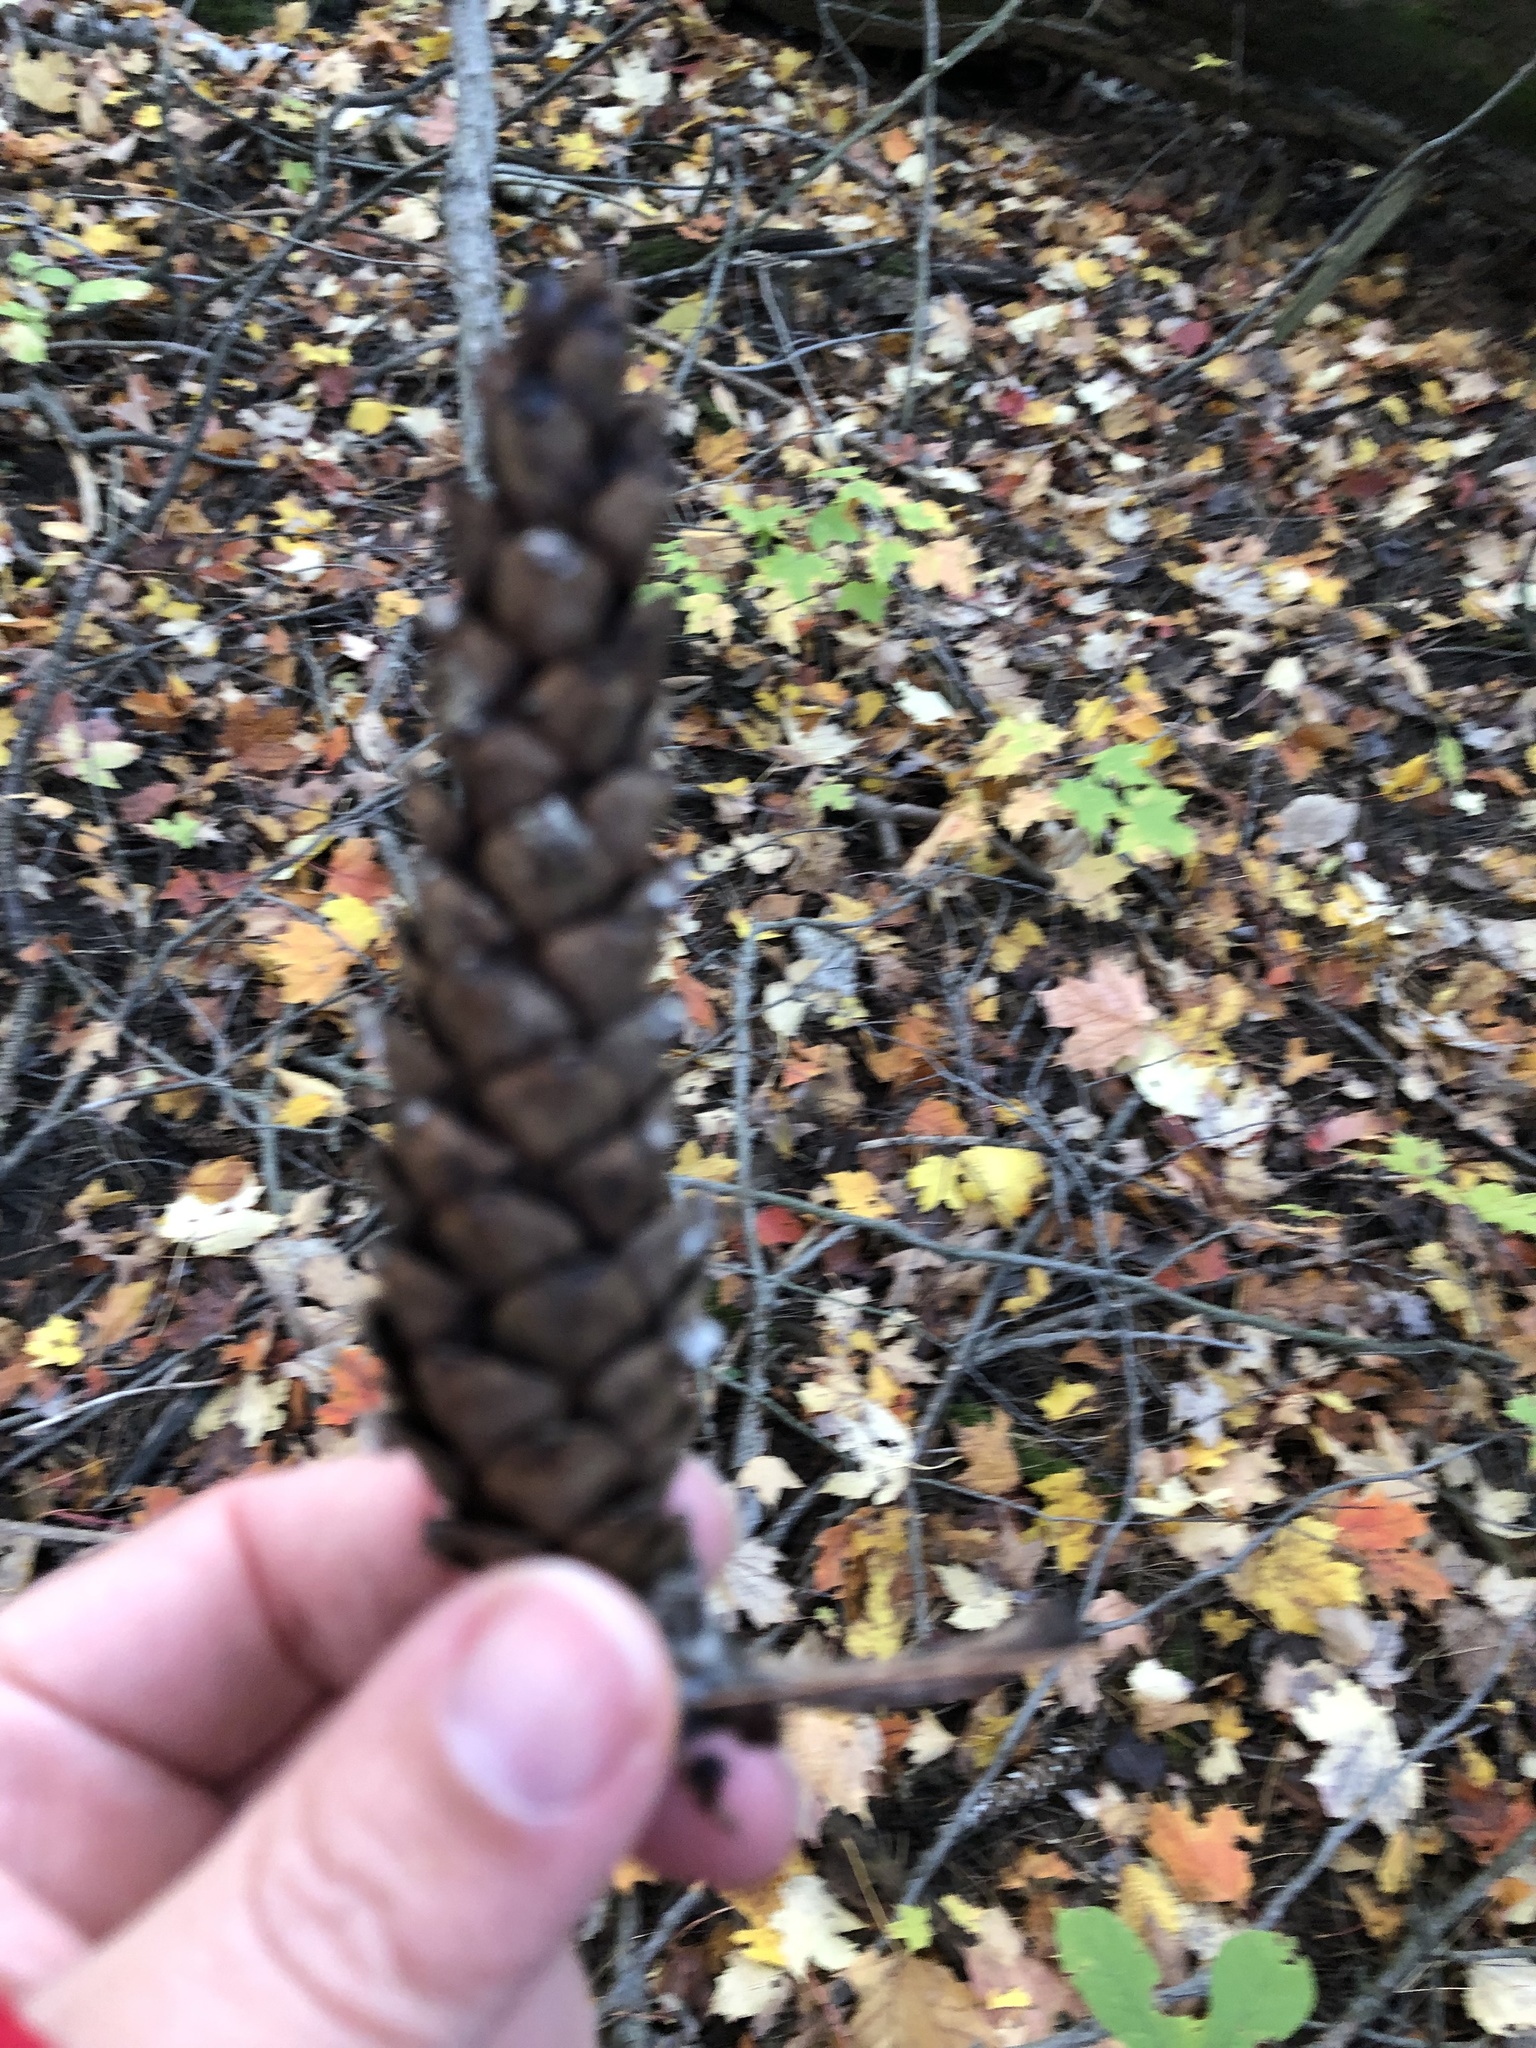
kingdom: Plantae
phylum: Tracheophyta
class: Pinopsida
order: Pinales
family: Pinaceae
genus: Pinus
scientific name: Pinus strobus
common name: Weymouth pine
